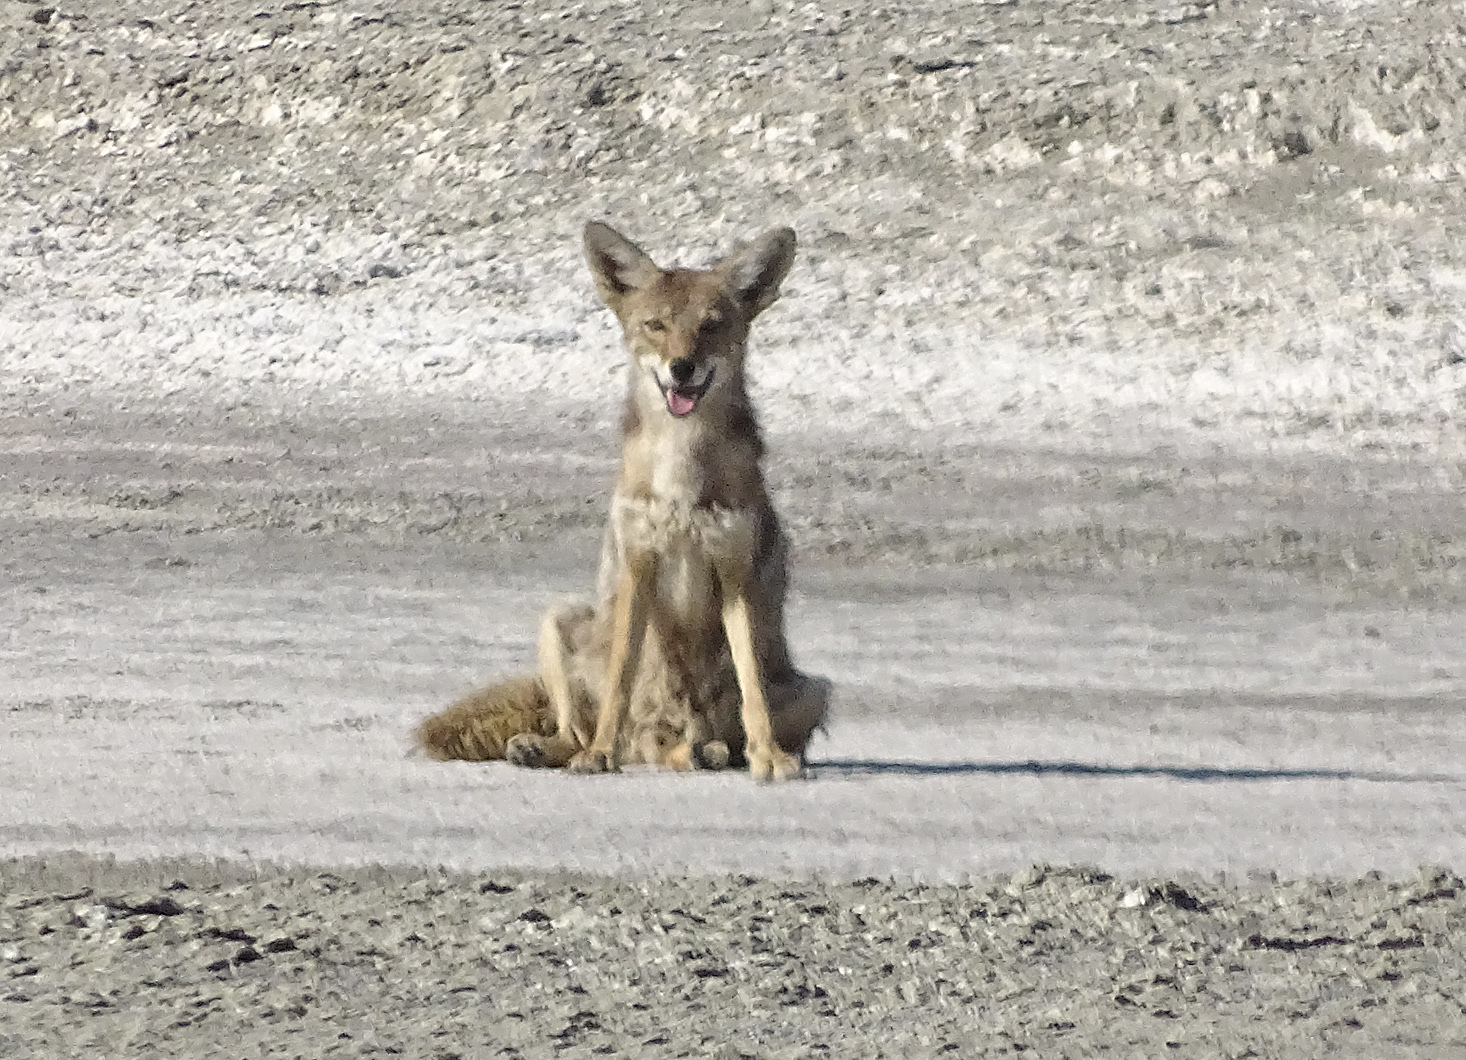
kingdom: Animalia
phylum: Chordata
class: Mammalia
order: Carnivora
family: Canidae
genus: Canis
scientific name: Canis latrans
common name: Coyote
